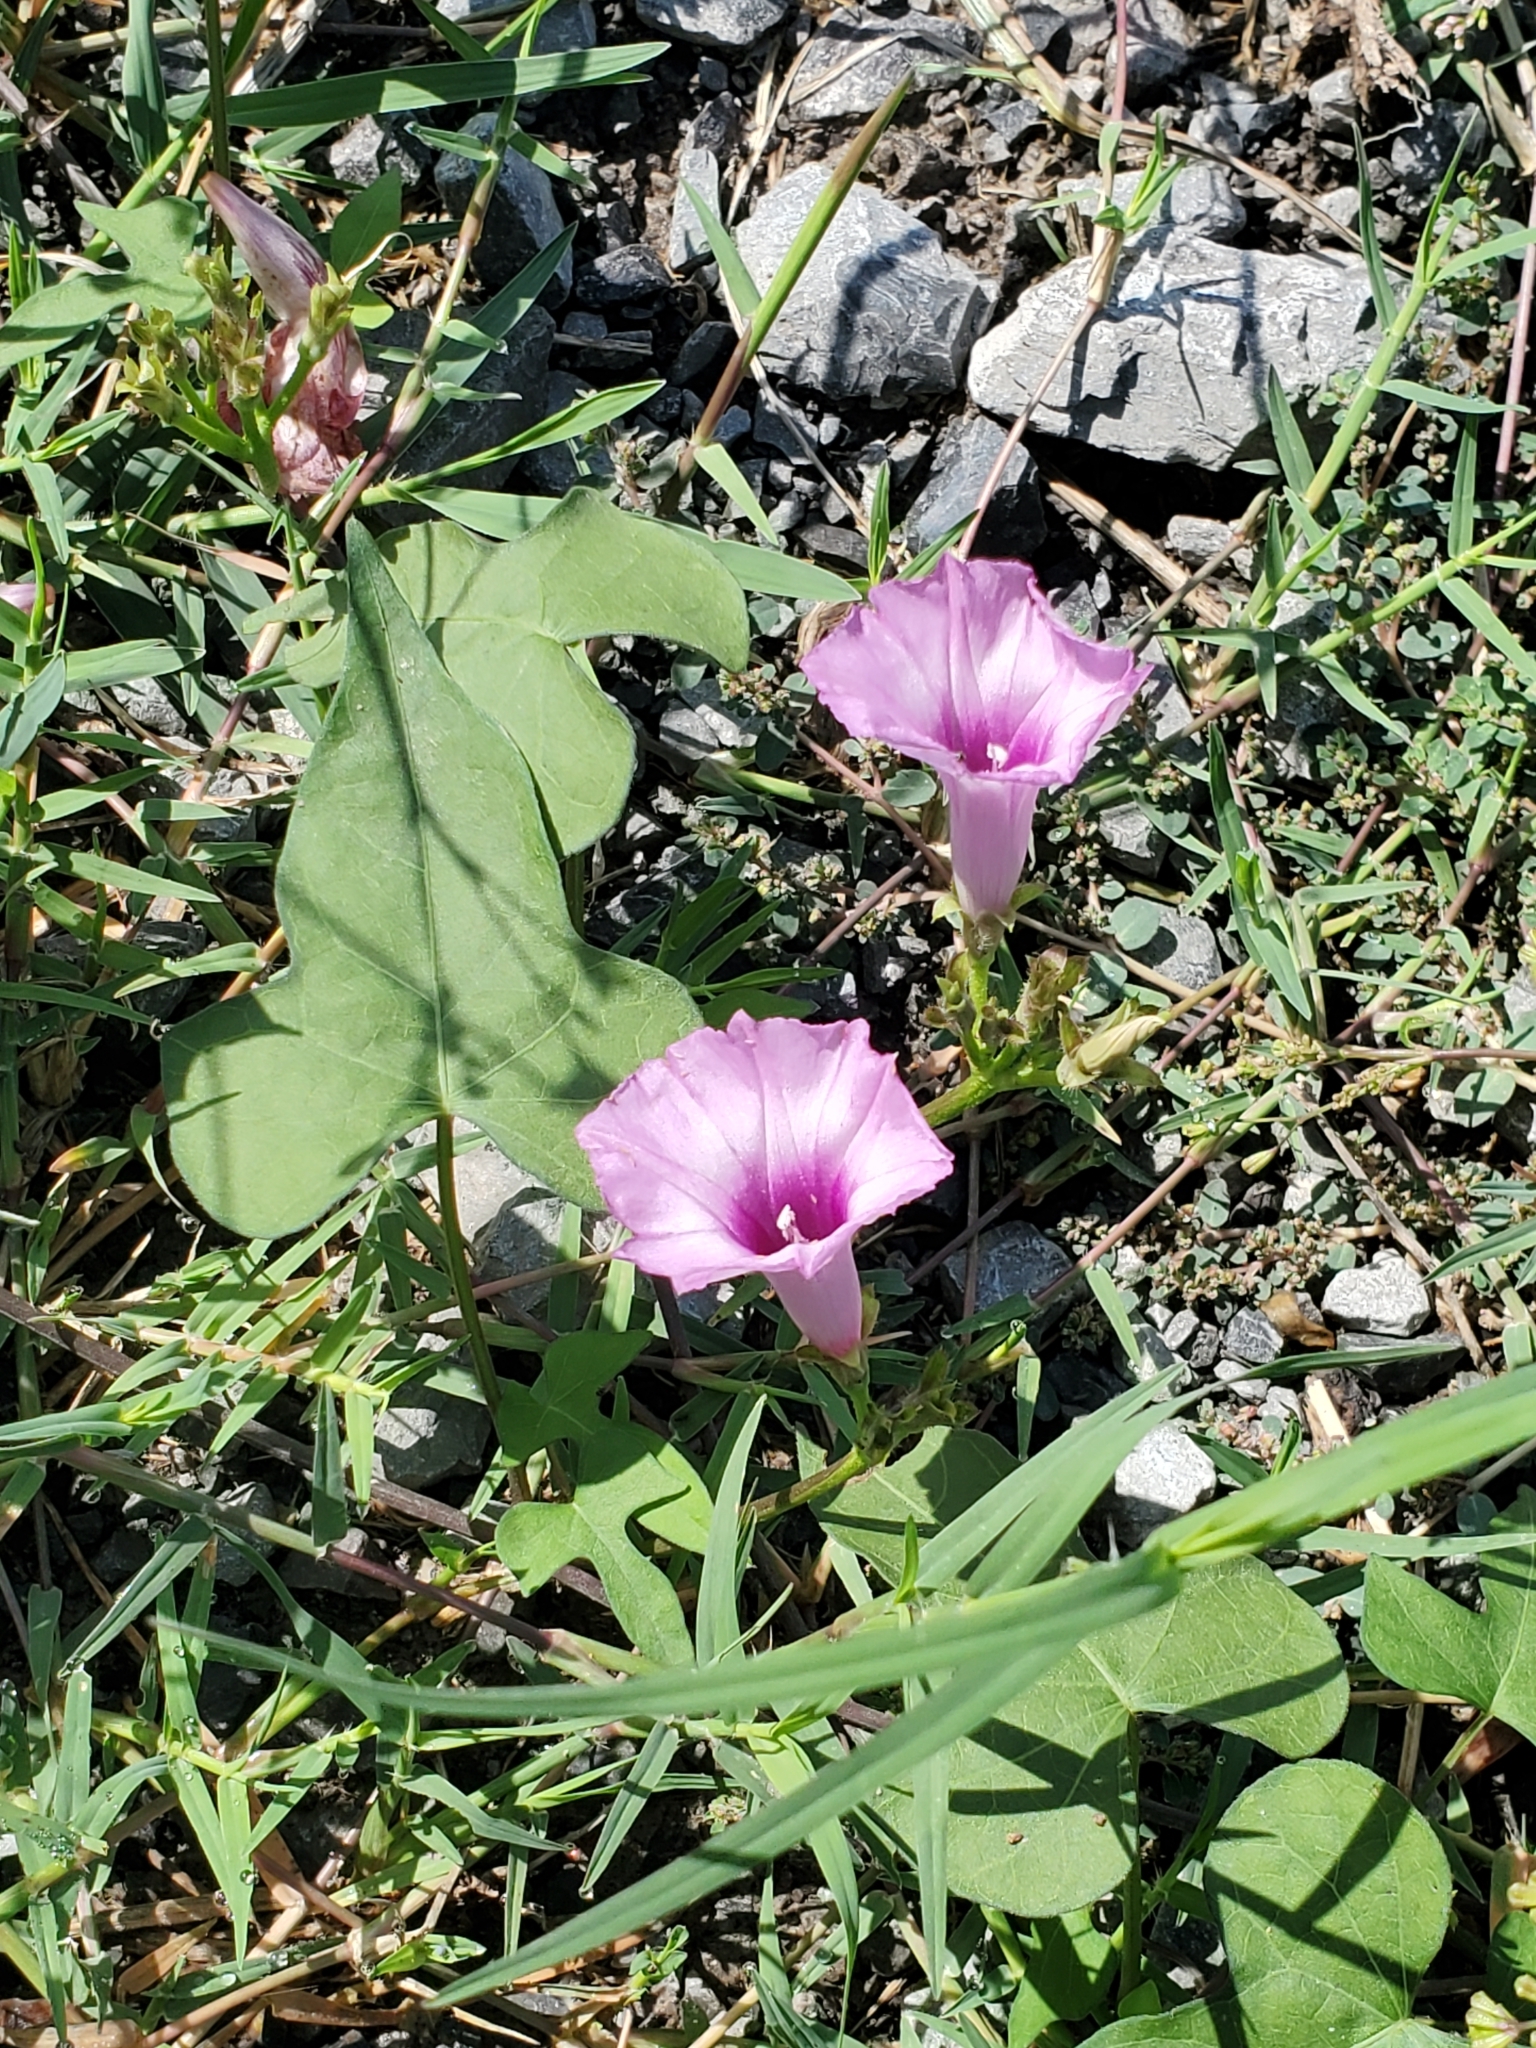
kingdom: Plantae
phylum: Tracheophyta
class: Magnoliopsida
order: Solanales
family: Convolvulaceae
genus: Ipomoea
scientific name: Ipomoea cordatotriloba
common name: Cotton morning glory
